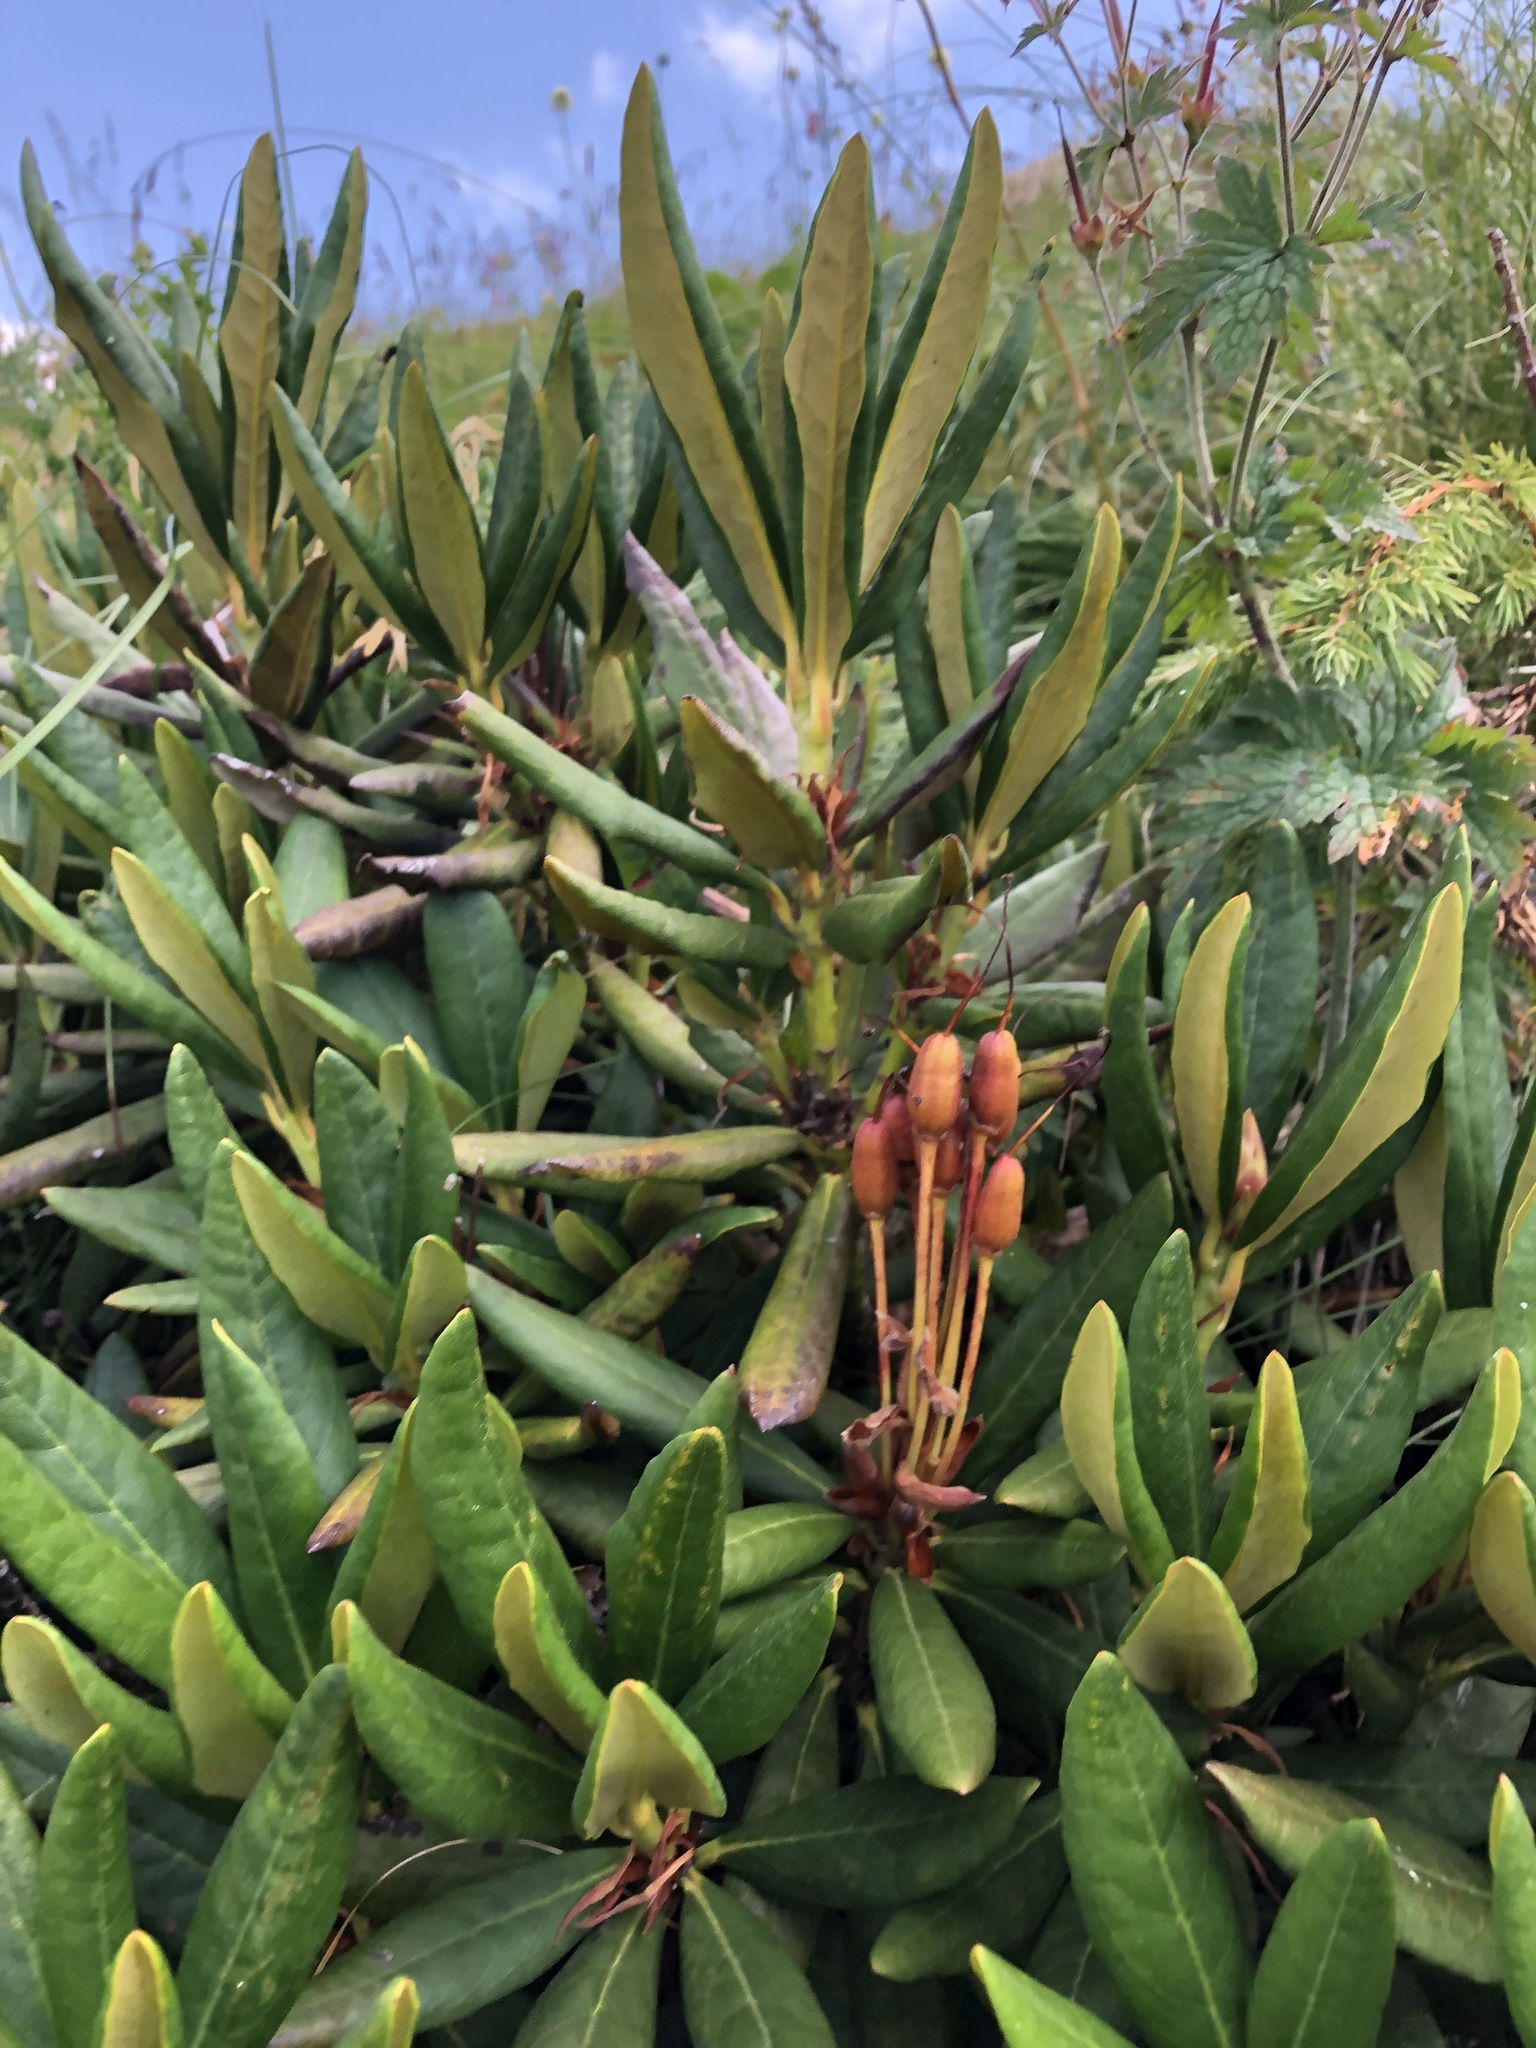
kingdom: Plantae
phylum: Tracheophyta
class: Magnoliopsida
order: Ericales
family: Ericaceae
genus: Rhododendron
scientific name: Rhododendron caucasicum
